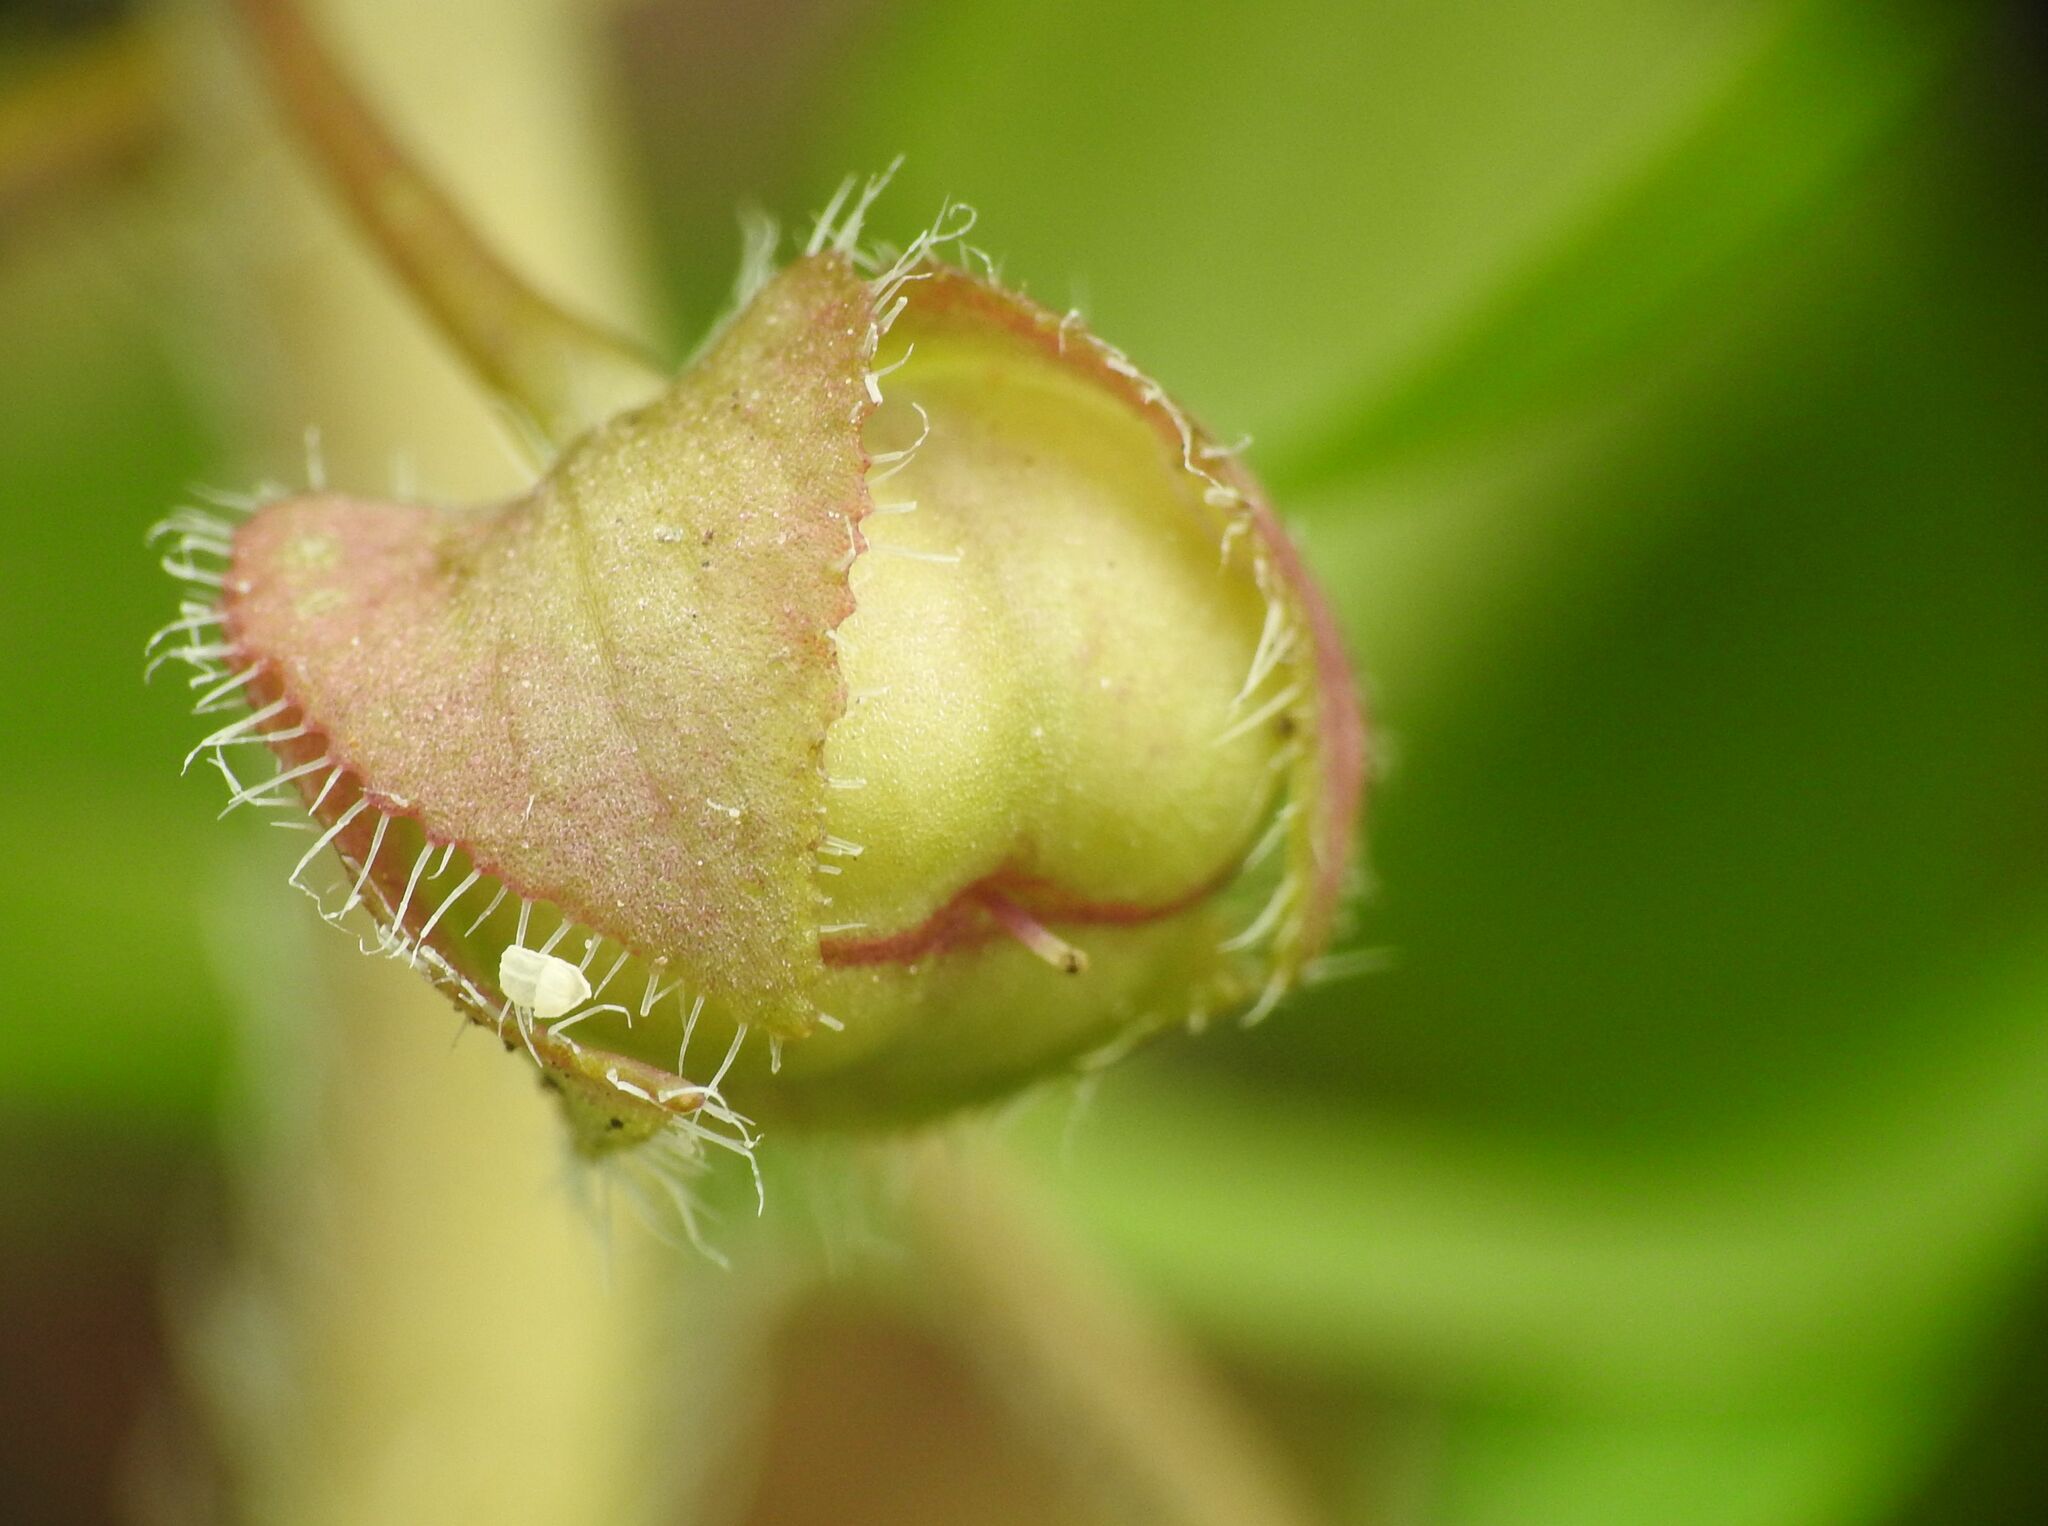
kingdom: Plantae
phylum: Tracheophyta
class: Magnoliopsida
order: Lamiales
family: Plantaginaceae
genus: Veronica
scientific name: Veronica hederifolia
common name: Ivy-leaved speedwell
